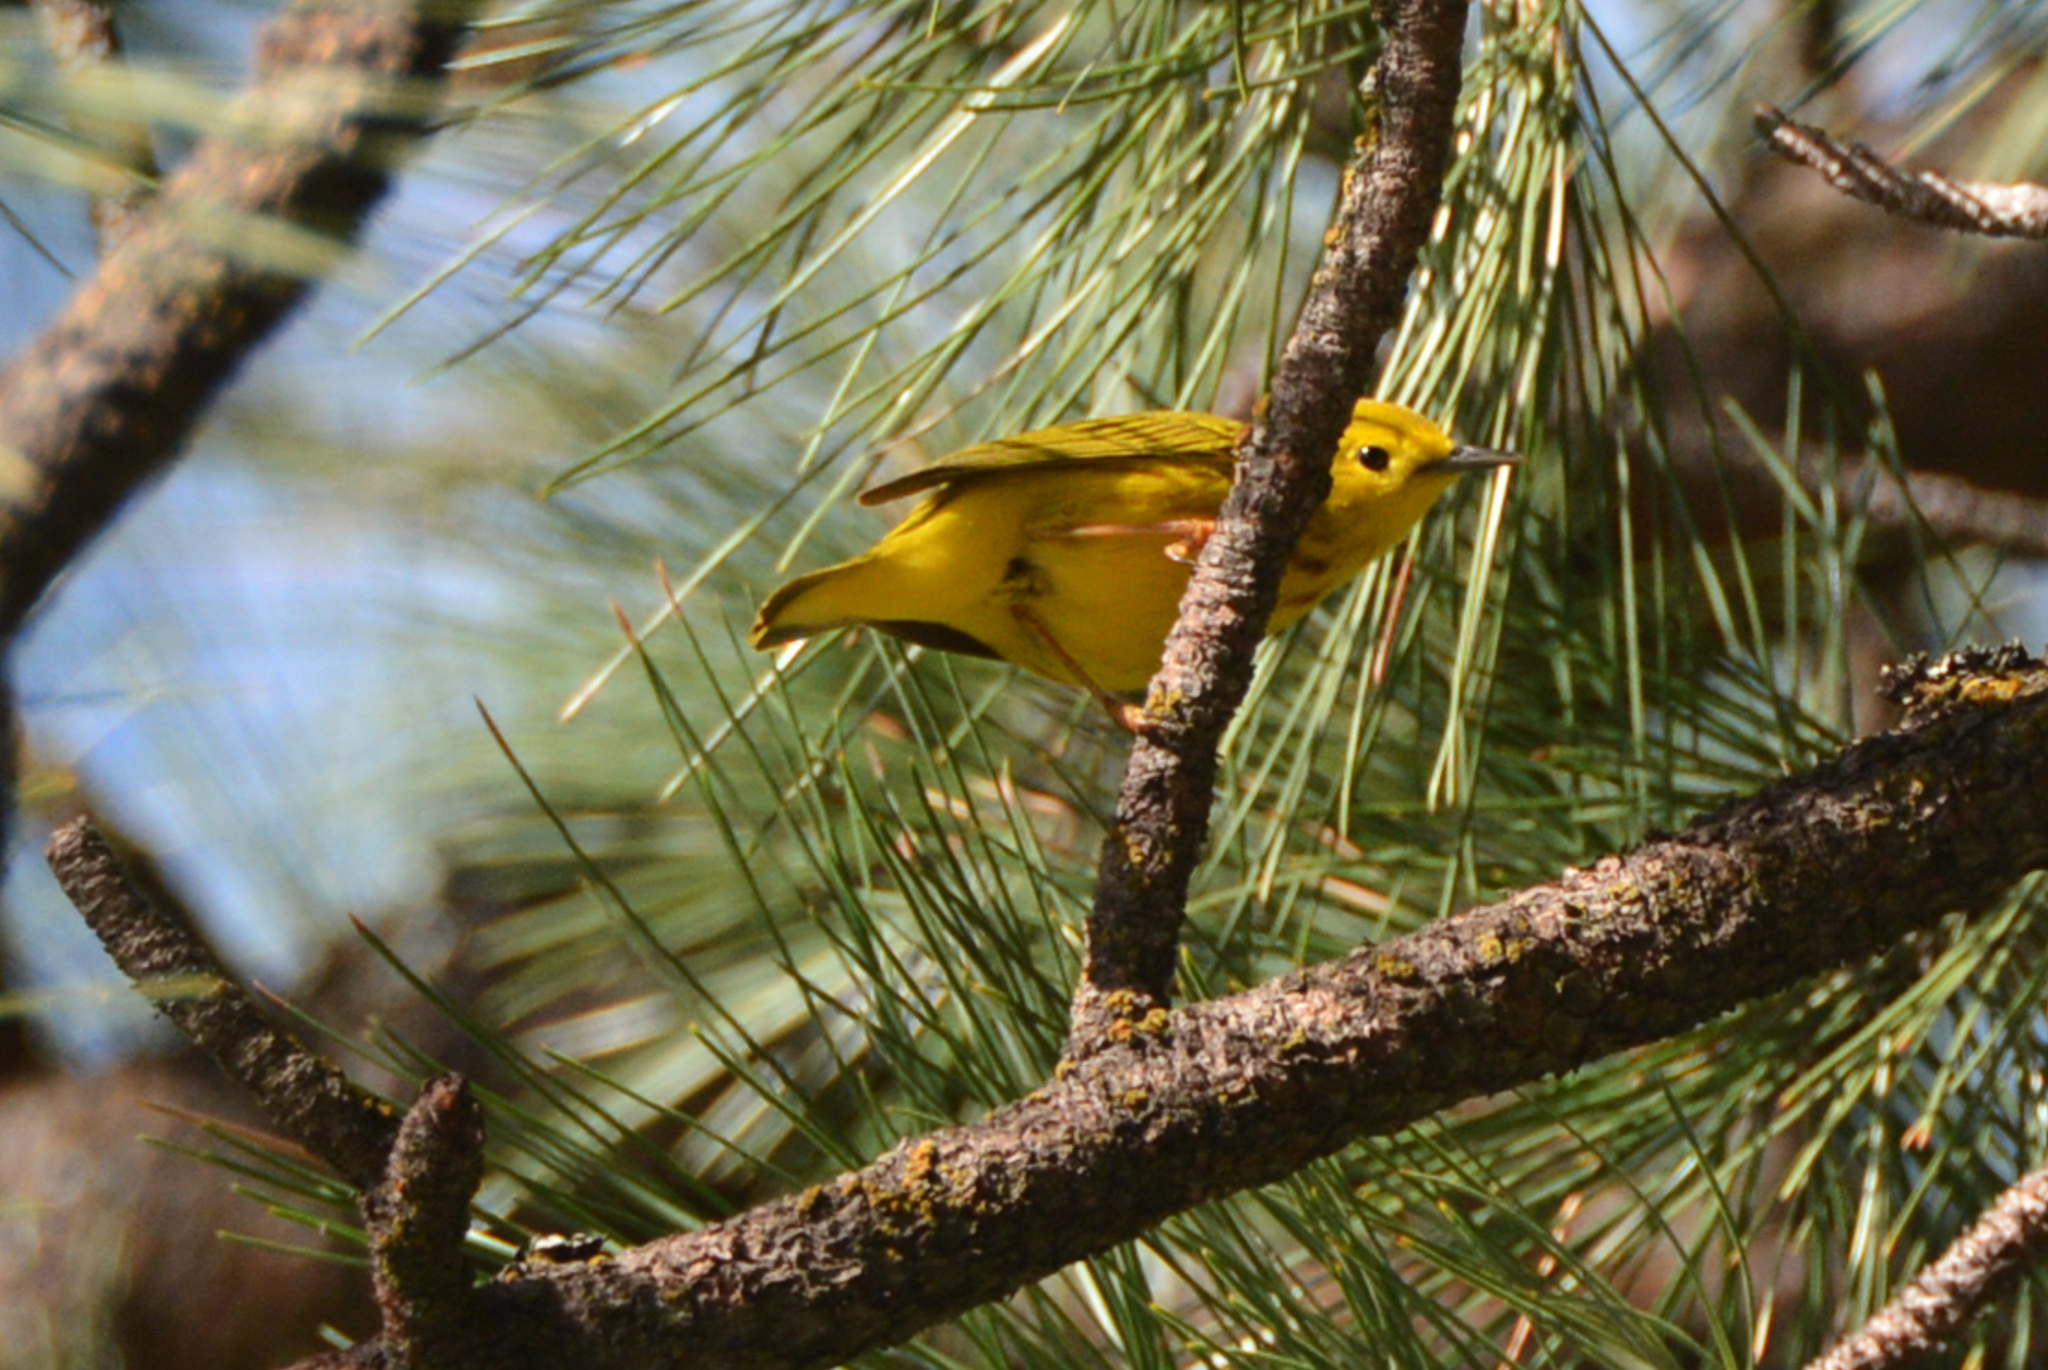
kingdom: Animalia
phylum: Chordata
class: Aves
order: Passeriformes
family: Parulidae
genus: Setophaga
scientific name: Setophaga petechia
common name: Yellow warbler
